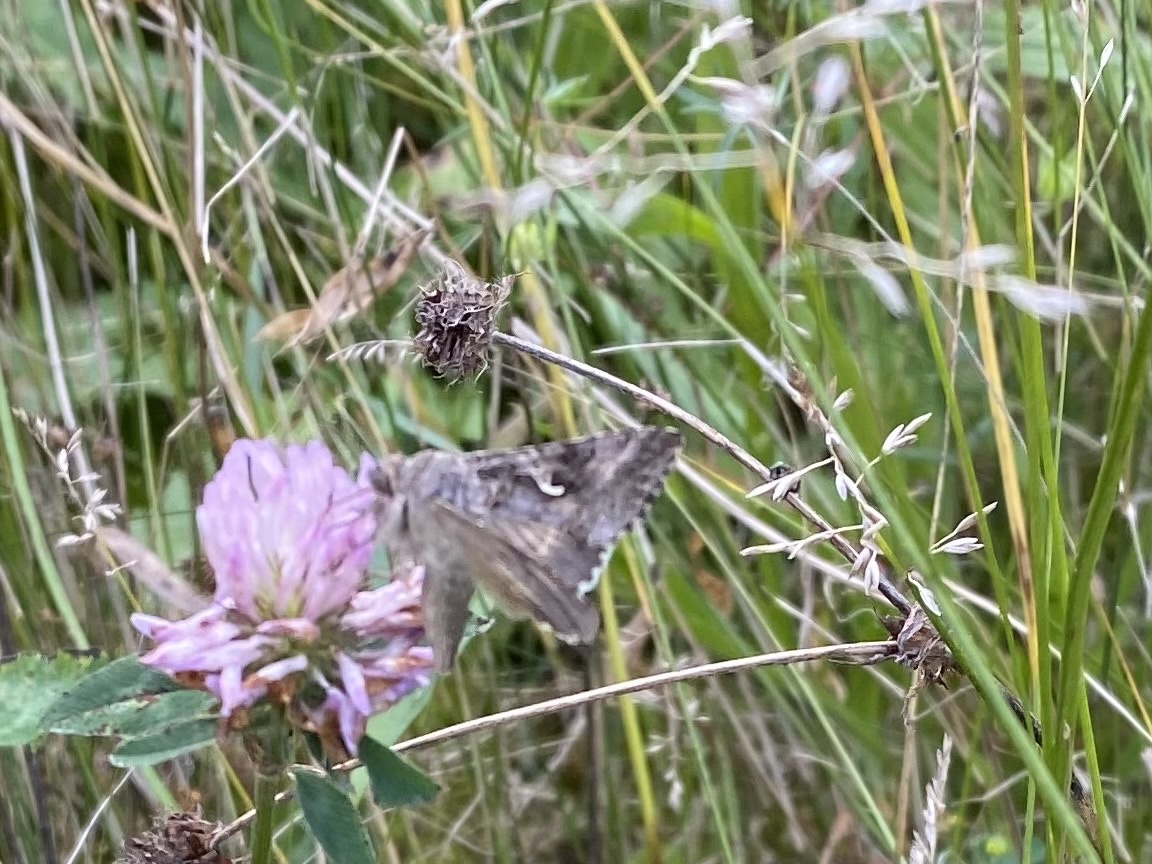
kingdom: Animalia
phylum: Arthropoda
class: Insecta
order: Lepidoptera
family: Noctuidae
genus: Autographa
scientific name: Autographa gamma
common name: Silver y
